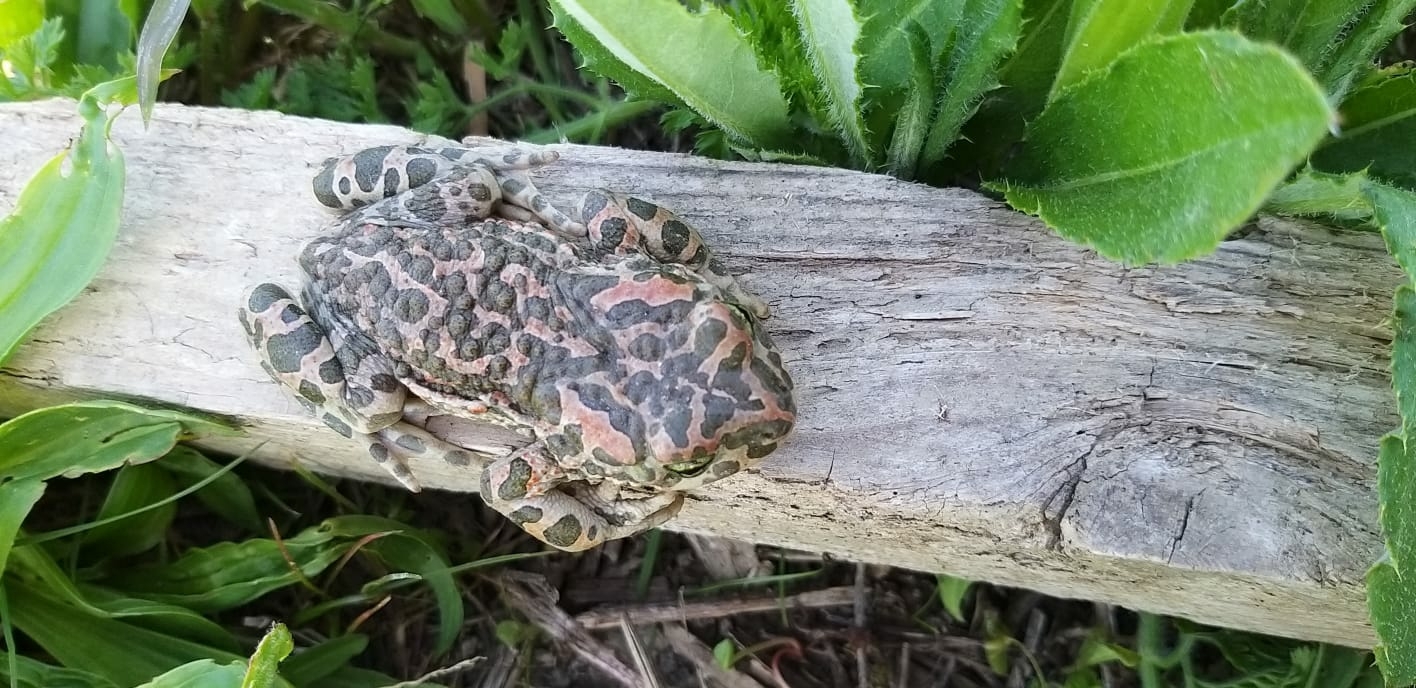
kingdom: Animalia
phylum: Chordata
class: Amphibia
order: Anura
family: Bufonidae
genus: Bufotes
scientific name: Bufotes viridis
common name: European green toad
